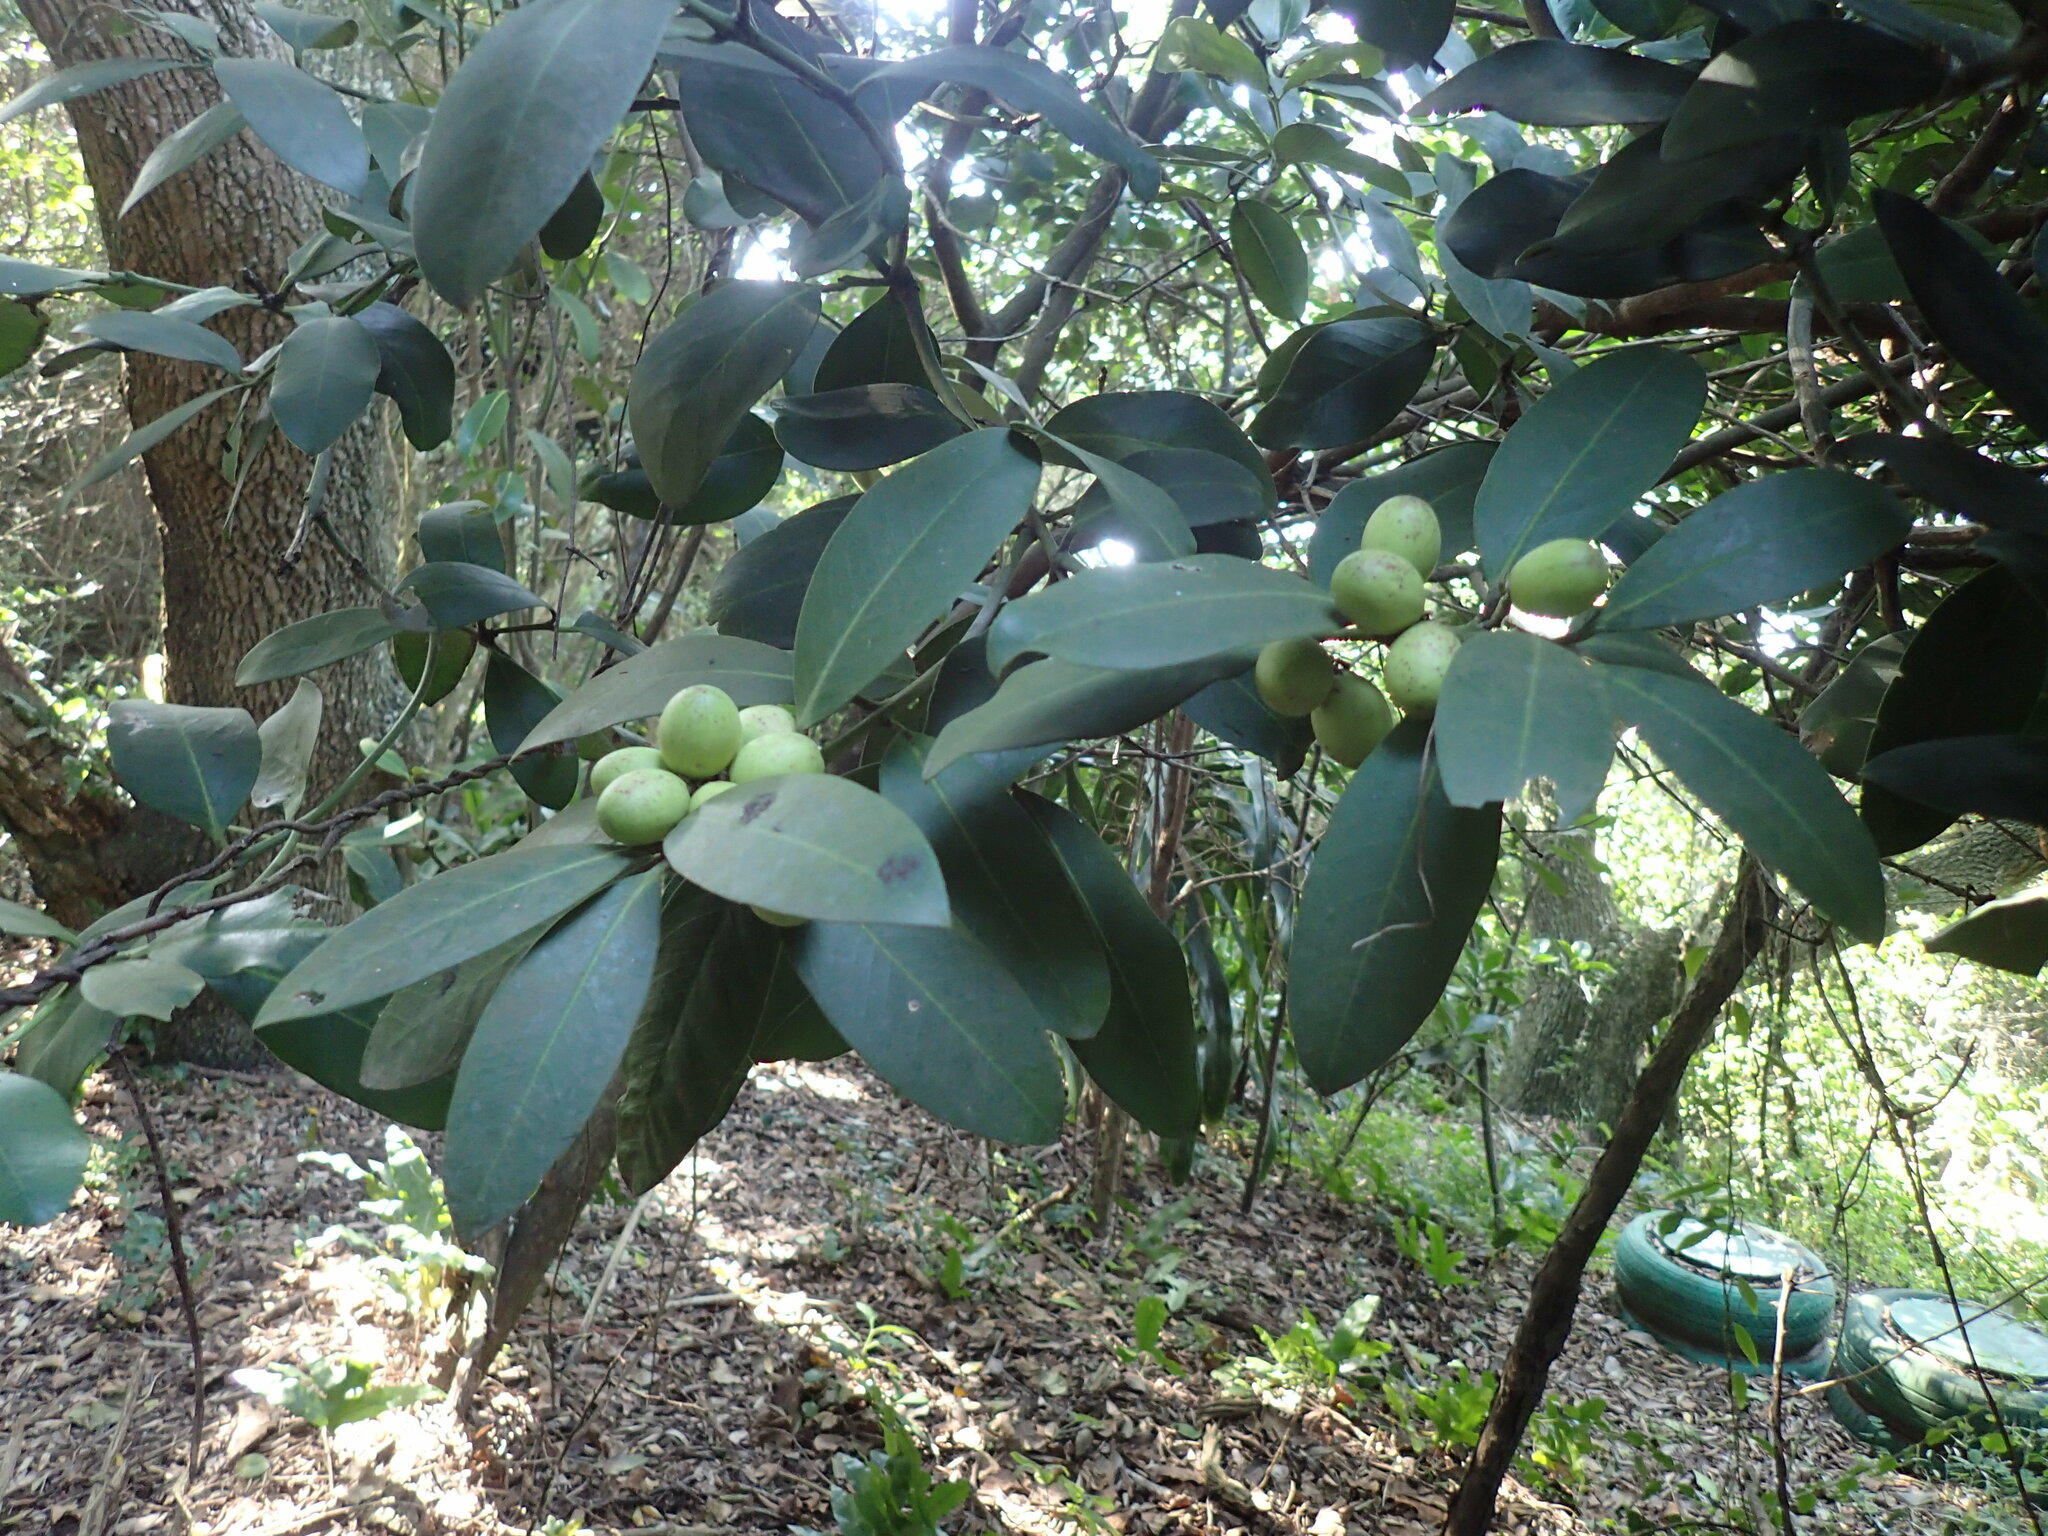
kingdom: Plantae
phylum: Tracheophyta
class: Magnoliopsida
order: Gentianales
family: Apocynaceae
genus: Acokanthera
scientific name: Acokanthera oppositifolia
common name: Bushman's-poison
